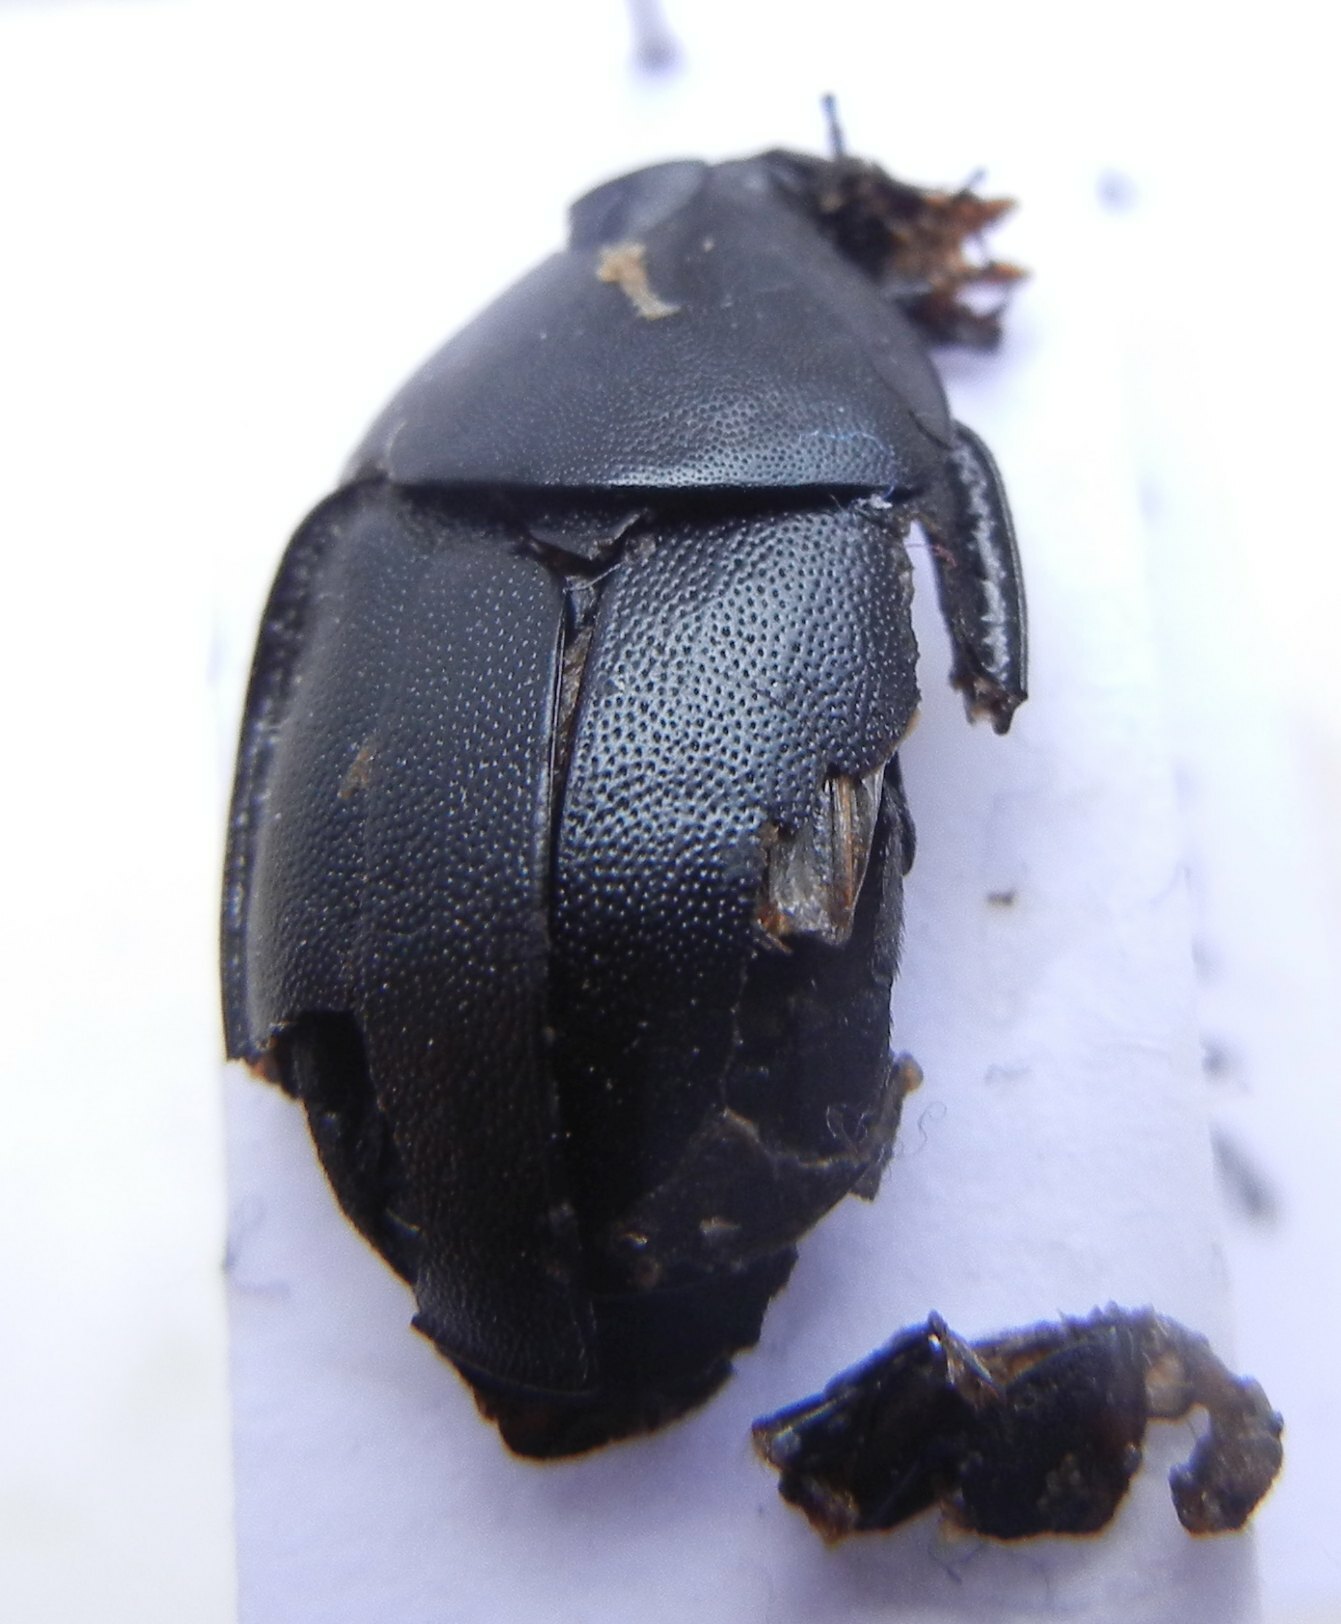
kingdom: Animalia
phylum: Arthropoda
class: Insecta
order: Coleoptera
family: Staphylinidae
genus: Silpha
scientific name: Silpha laevigata
